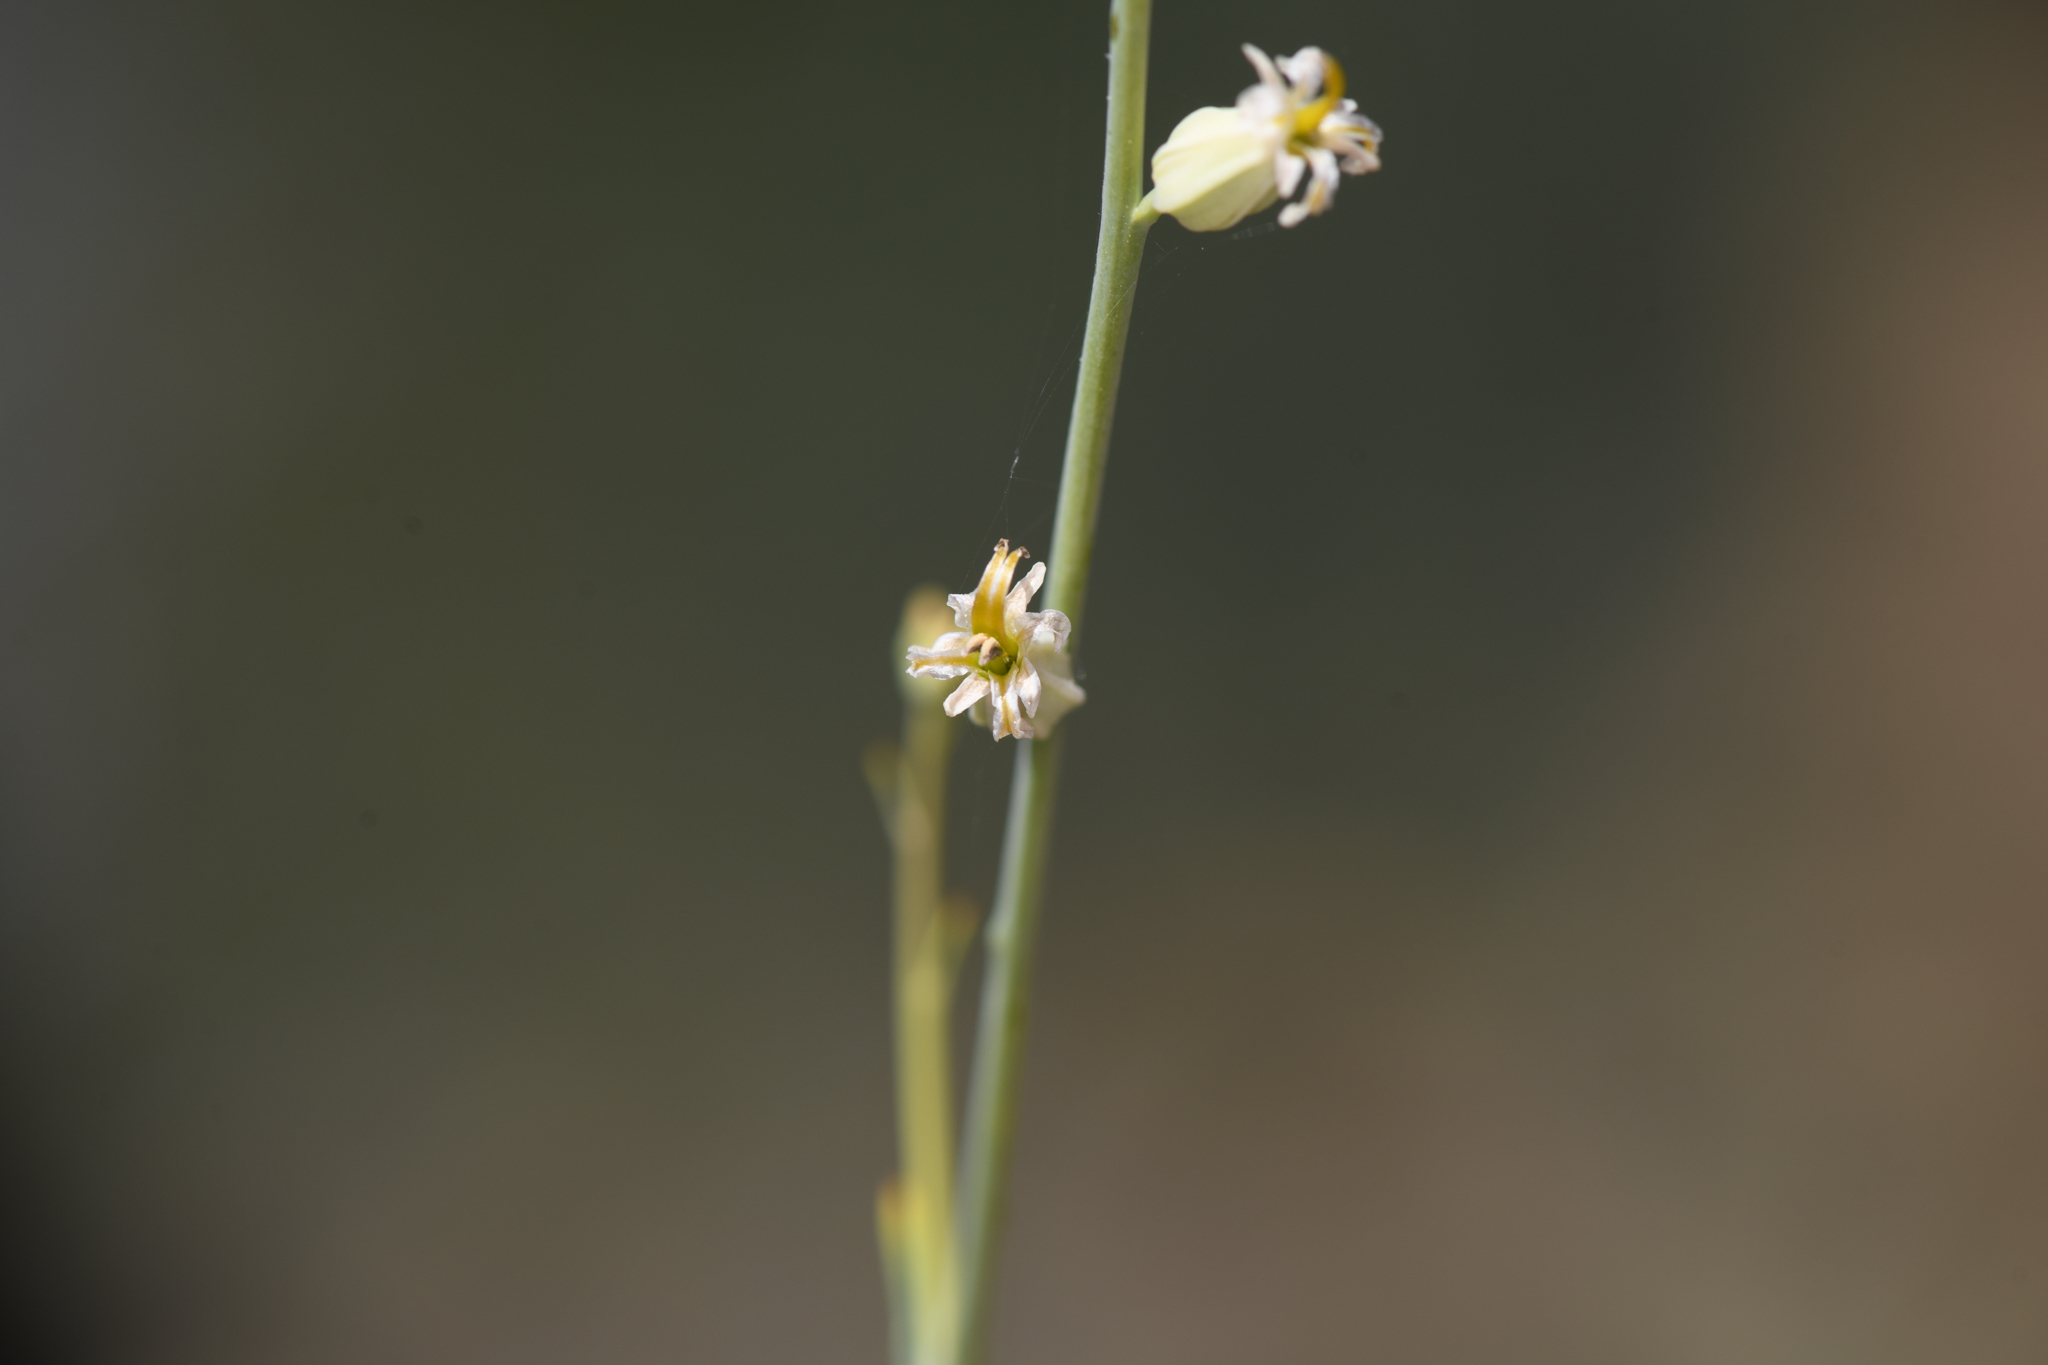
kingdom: Plantae
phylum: Tracheophyta
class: Magnoliopsida
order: Brassicales
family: Brassicaceae
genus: Streptanthus
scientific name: Streptanthus morrisonii
